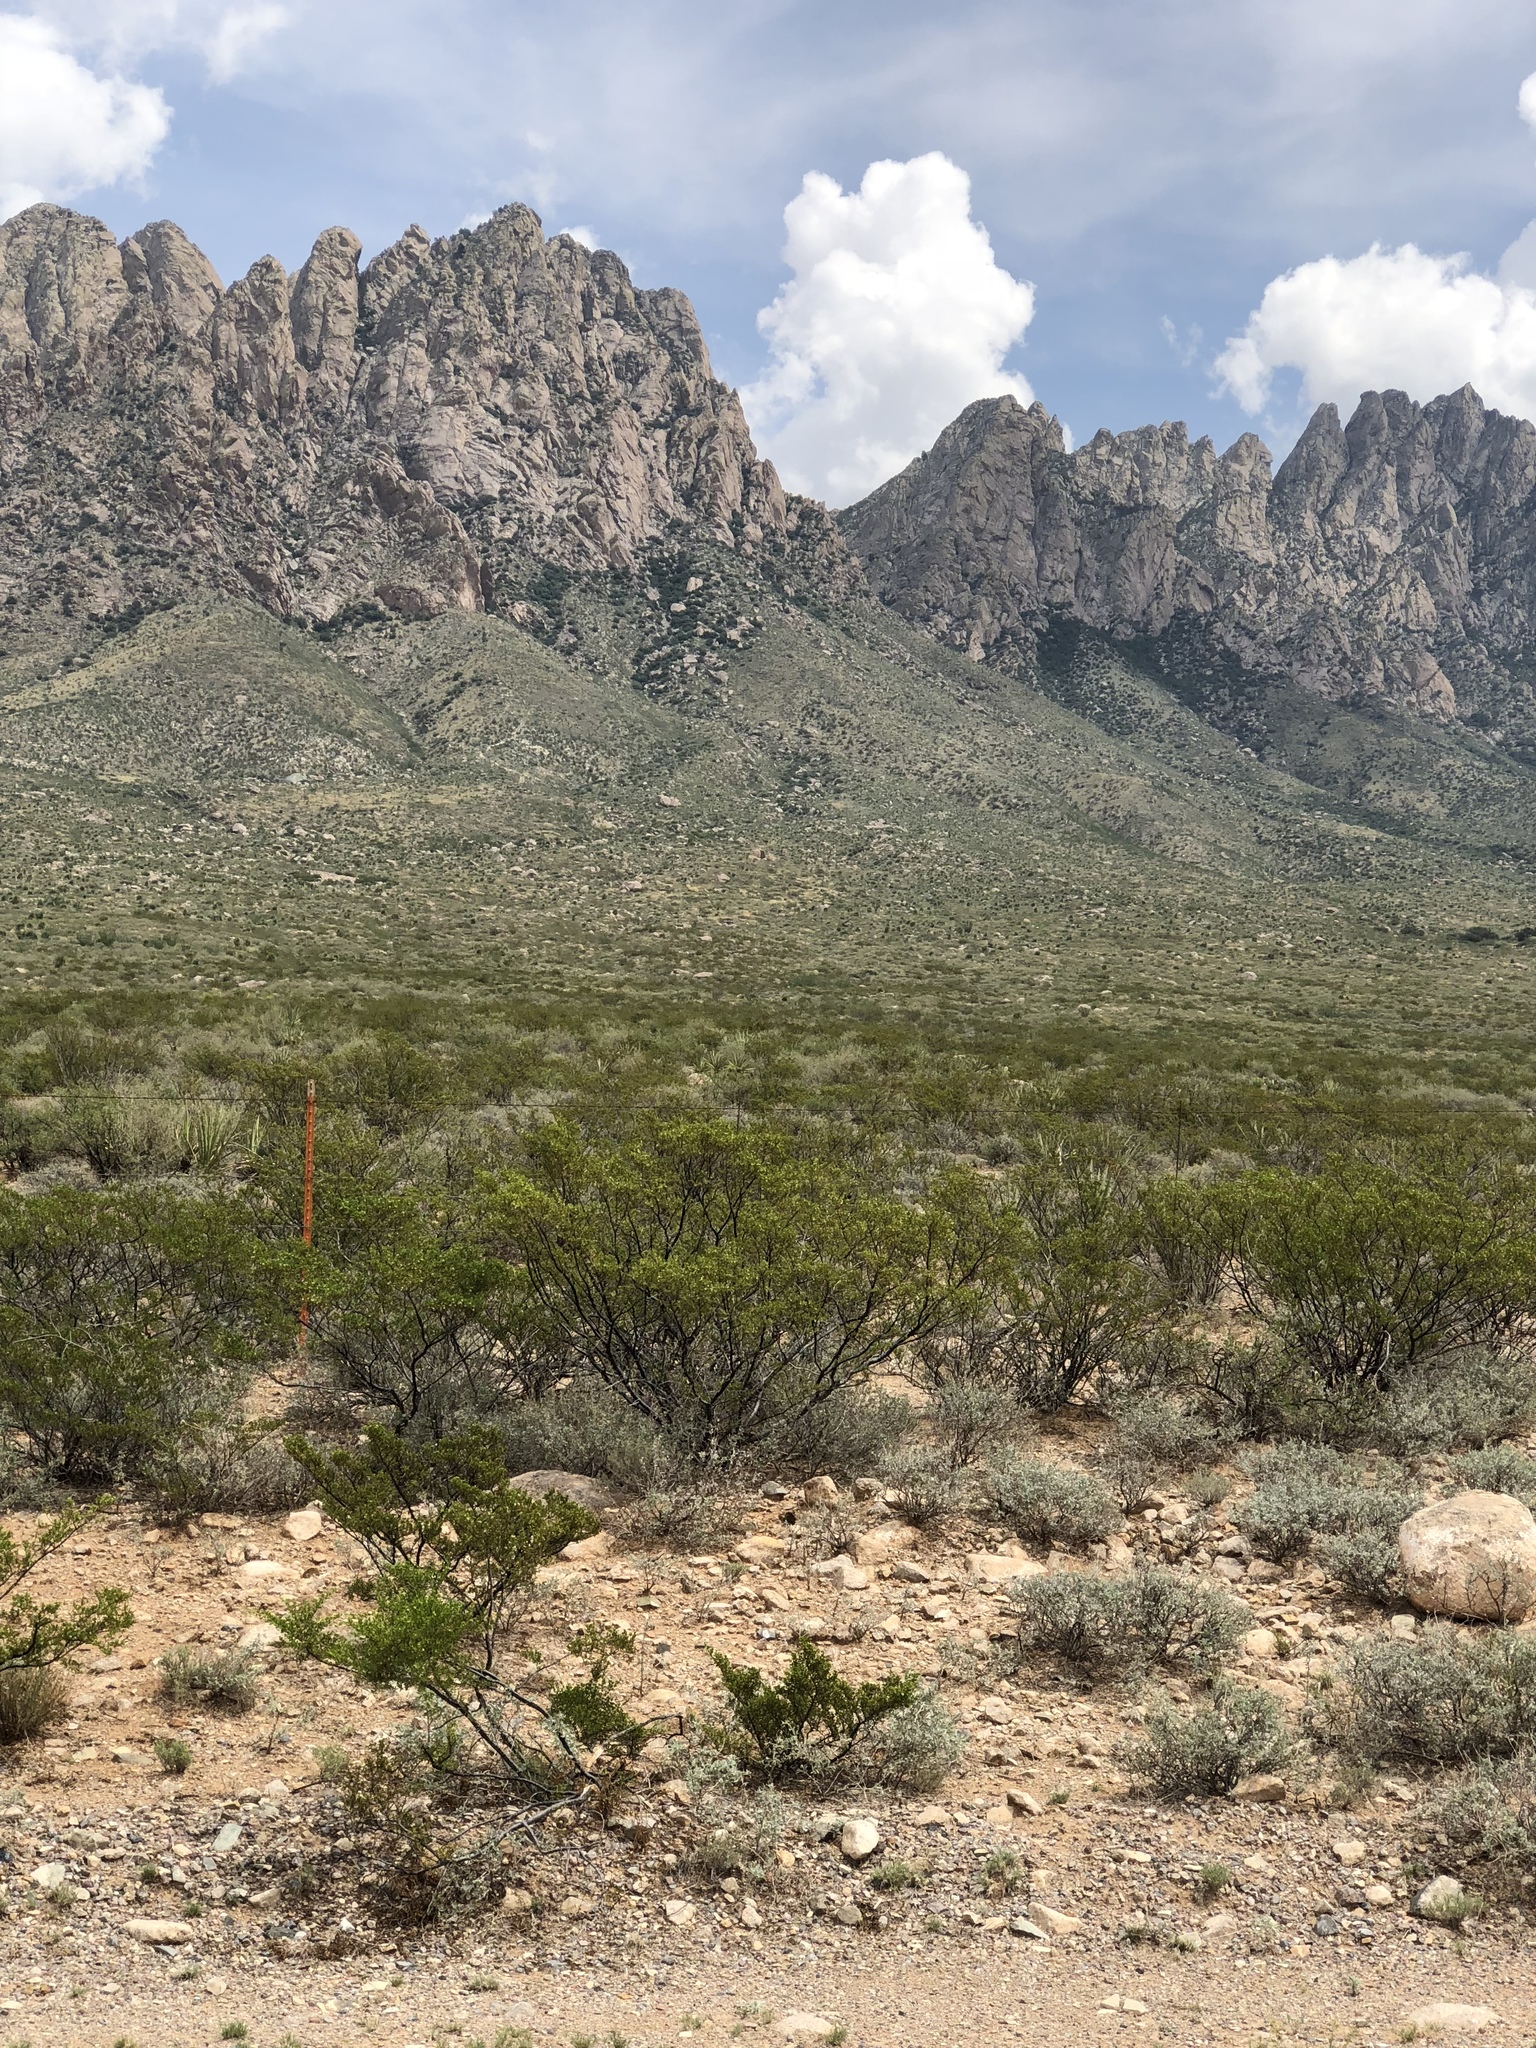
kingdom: Plantae
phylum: Tracheophyta
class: Magnoliopsida
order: Zygophyllales
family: Zygophyllaceae
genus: Larrea
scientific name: Larrea tridentata
